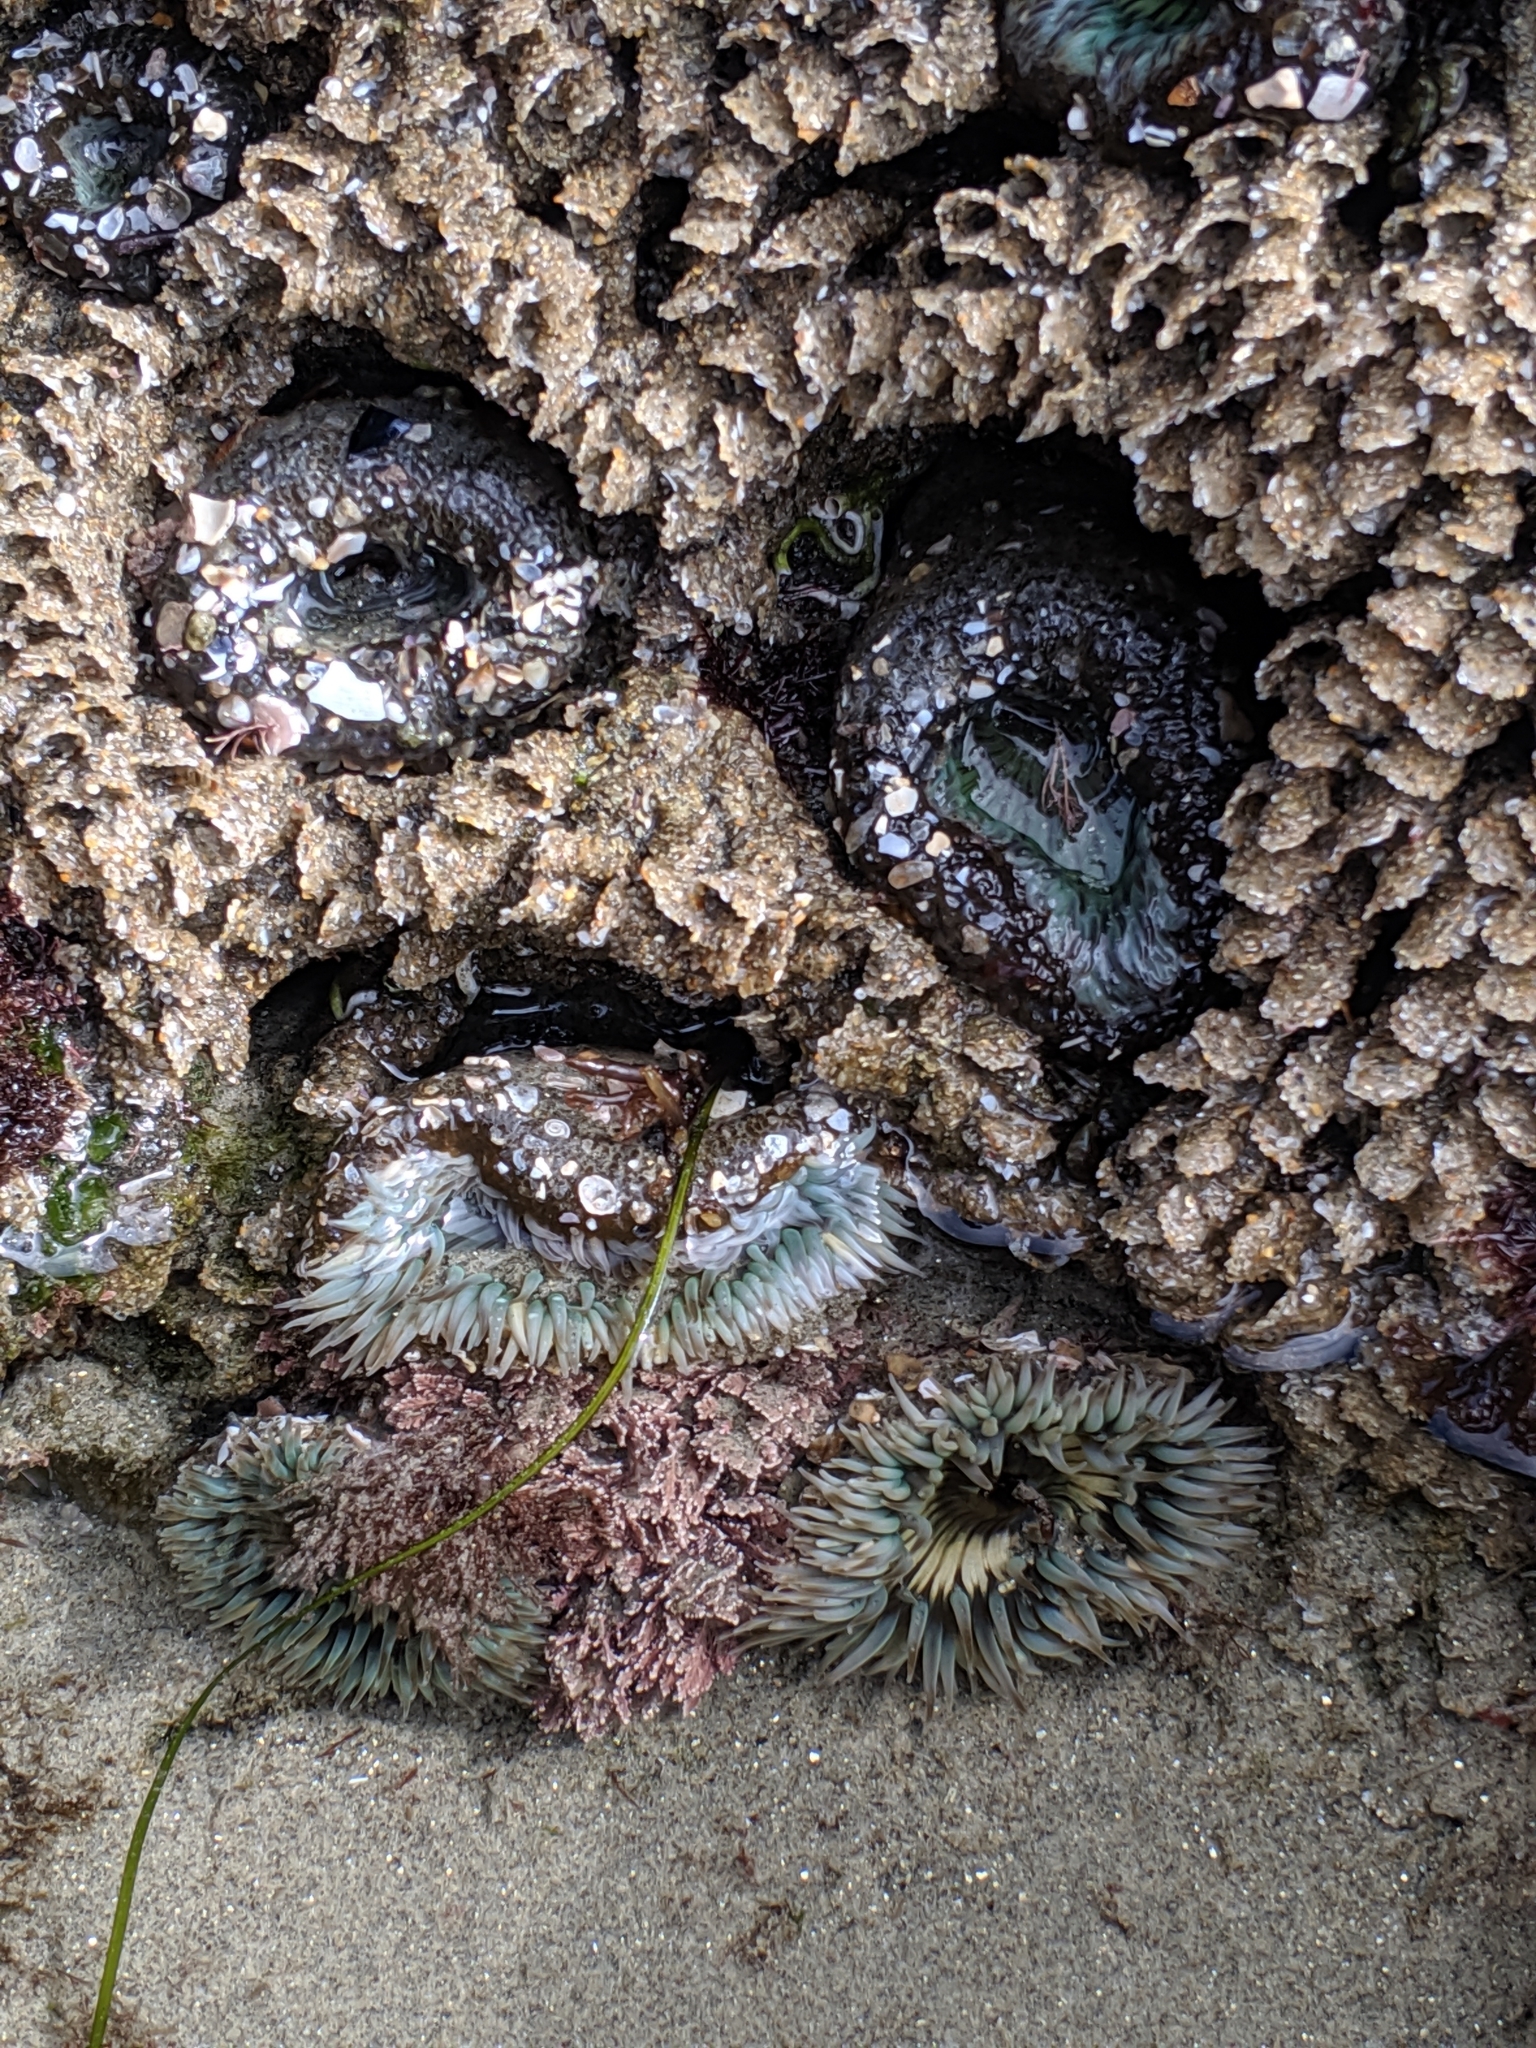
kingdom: Animalia
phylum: Cnidaria
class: Anthozoa
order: Actiniaria
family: Actiniidae
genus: Anthopleura
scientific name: Anthopleura sola
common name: Sun anemone
